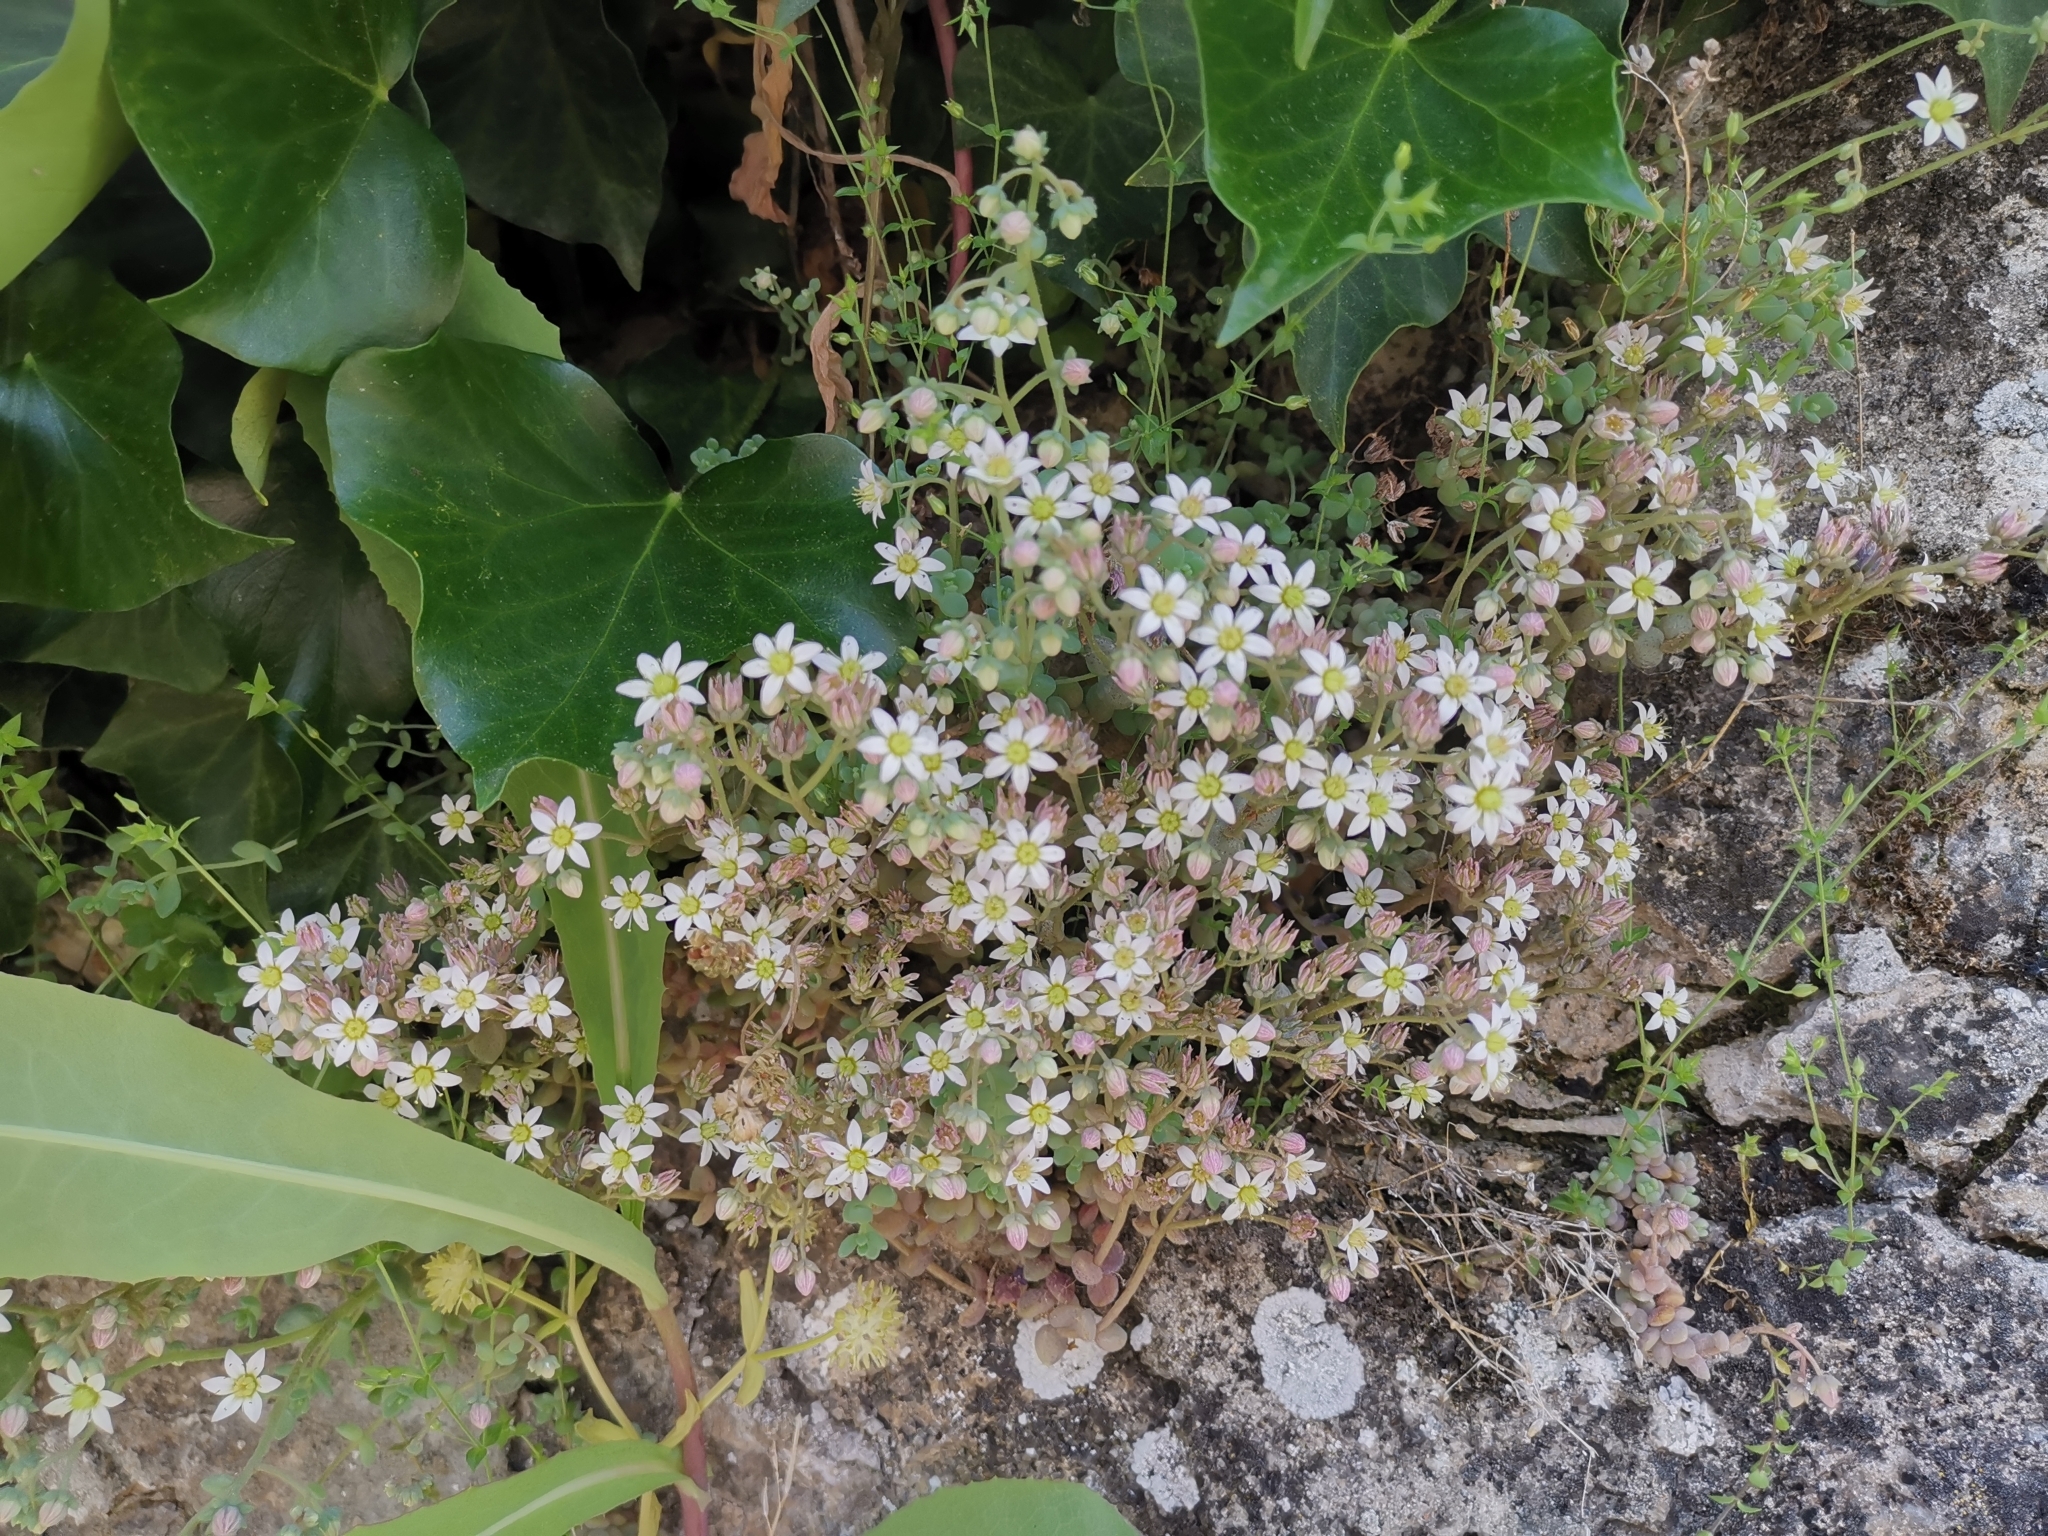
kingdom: Plantae
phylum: Tracheophyta
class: Magnoliopsida
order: Saxifragales
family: Crassulaceae
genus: Sedum
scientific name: Sedum dasyphyllum
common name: Thick-leaf stonecrop
